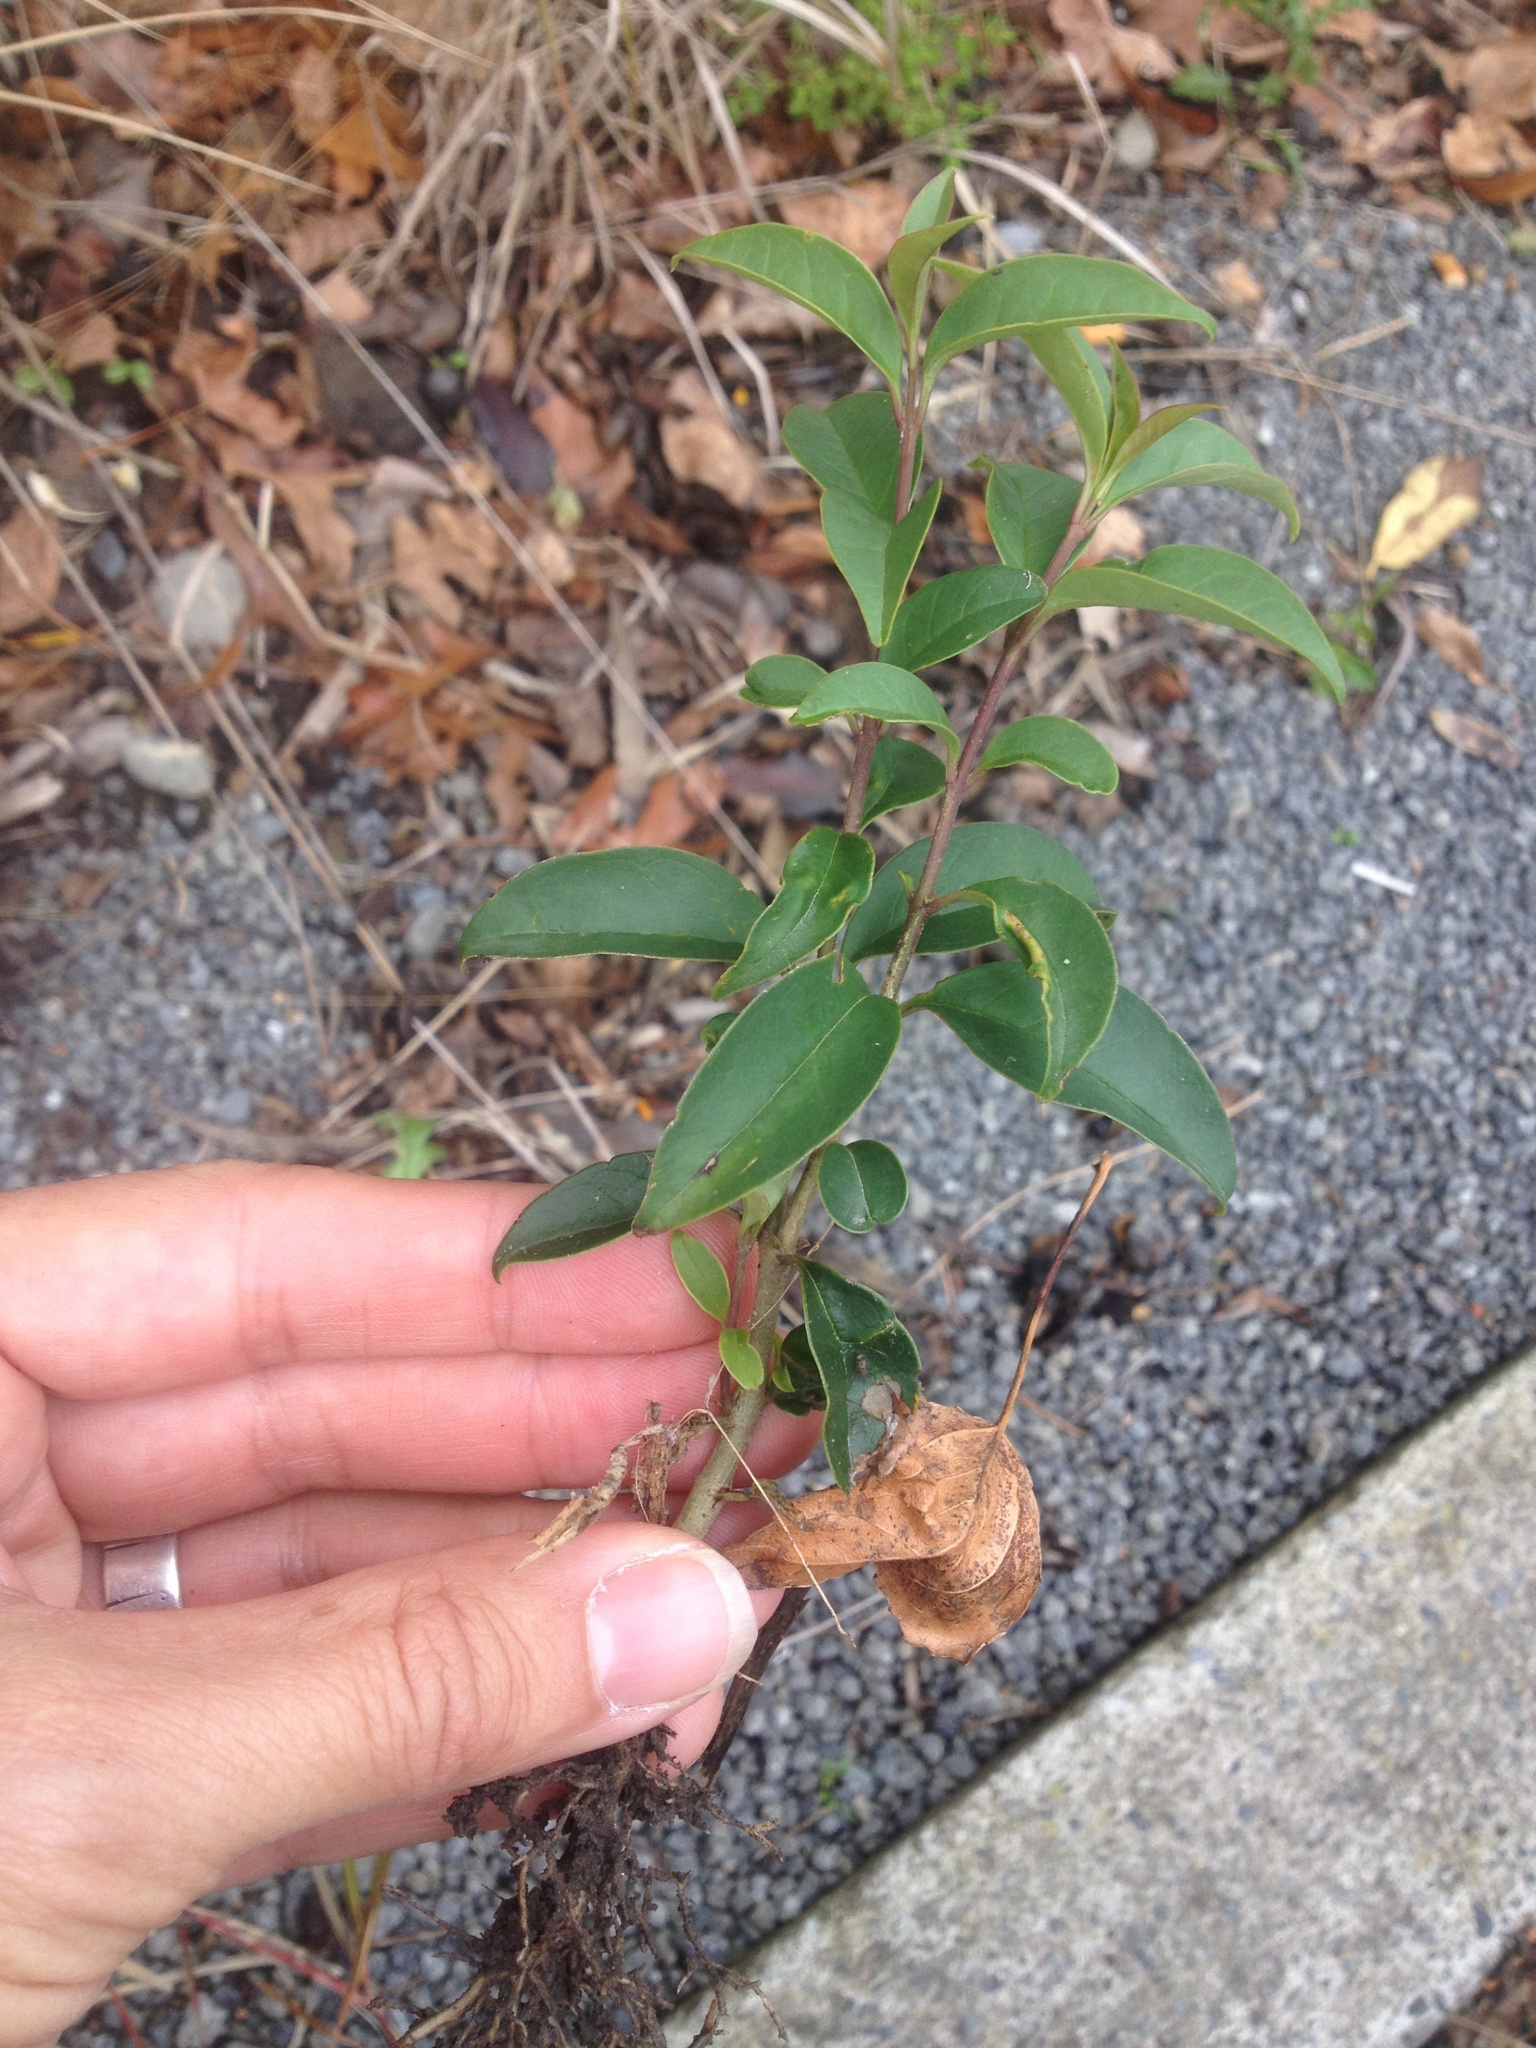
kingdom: Plantae
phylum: Tracheophyta
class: Magnoliopsida
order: Lamiales
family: Oleaceae
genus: Ligustrum
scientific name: Ligustrum lucidum
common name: Glossy privet
